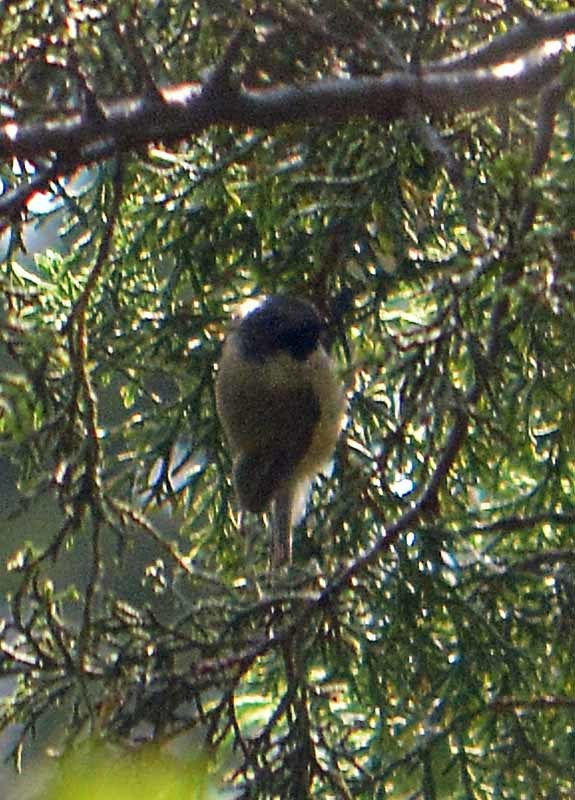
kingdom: Animalia
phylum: Chordata
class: Aves
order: Passeriformes
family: Aegithalidae
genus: Psaltriparus
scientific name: Psaltriparus minimus
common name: American bushtit
